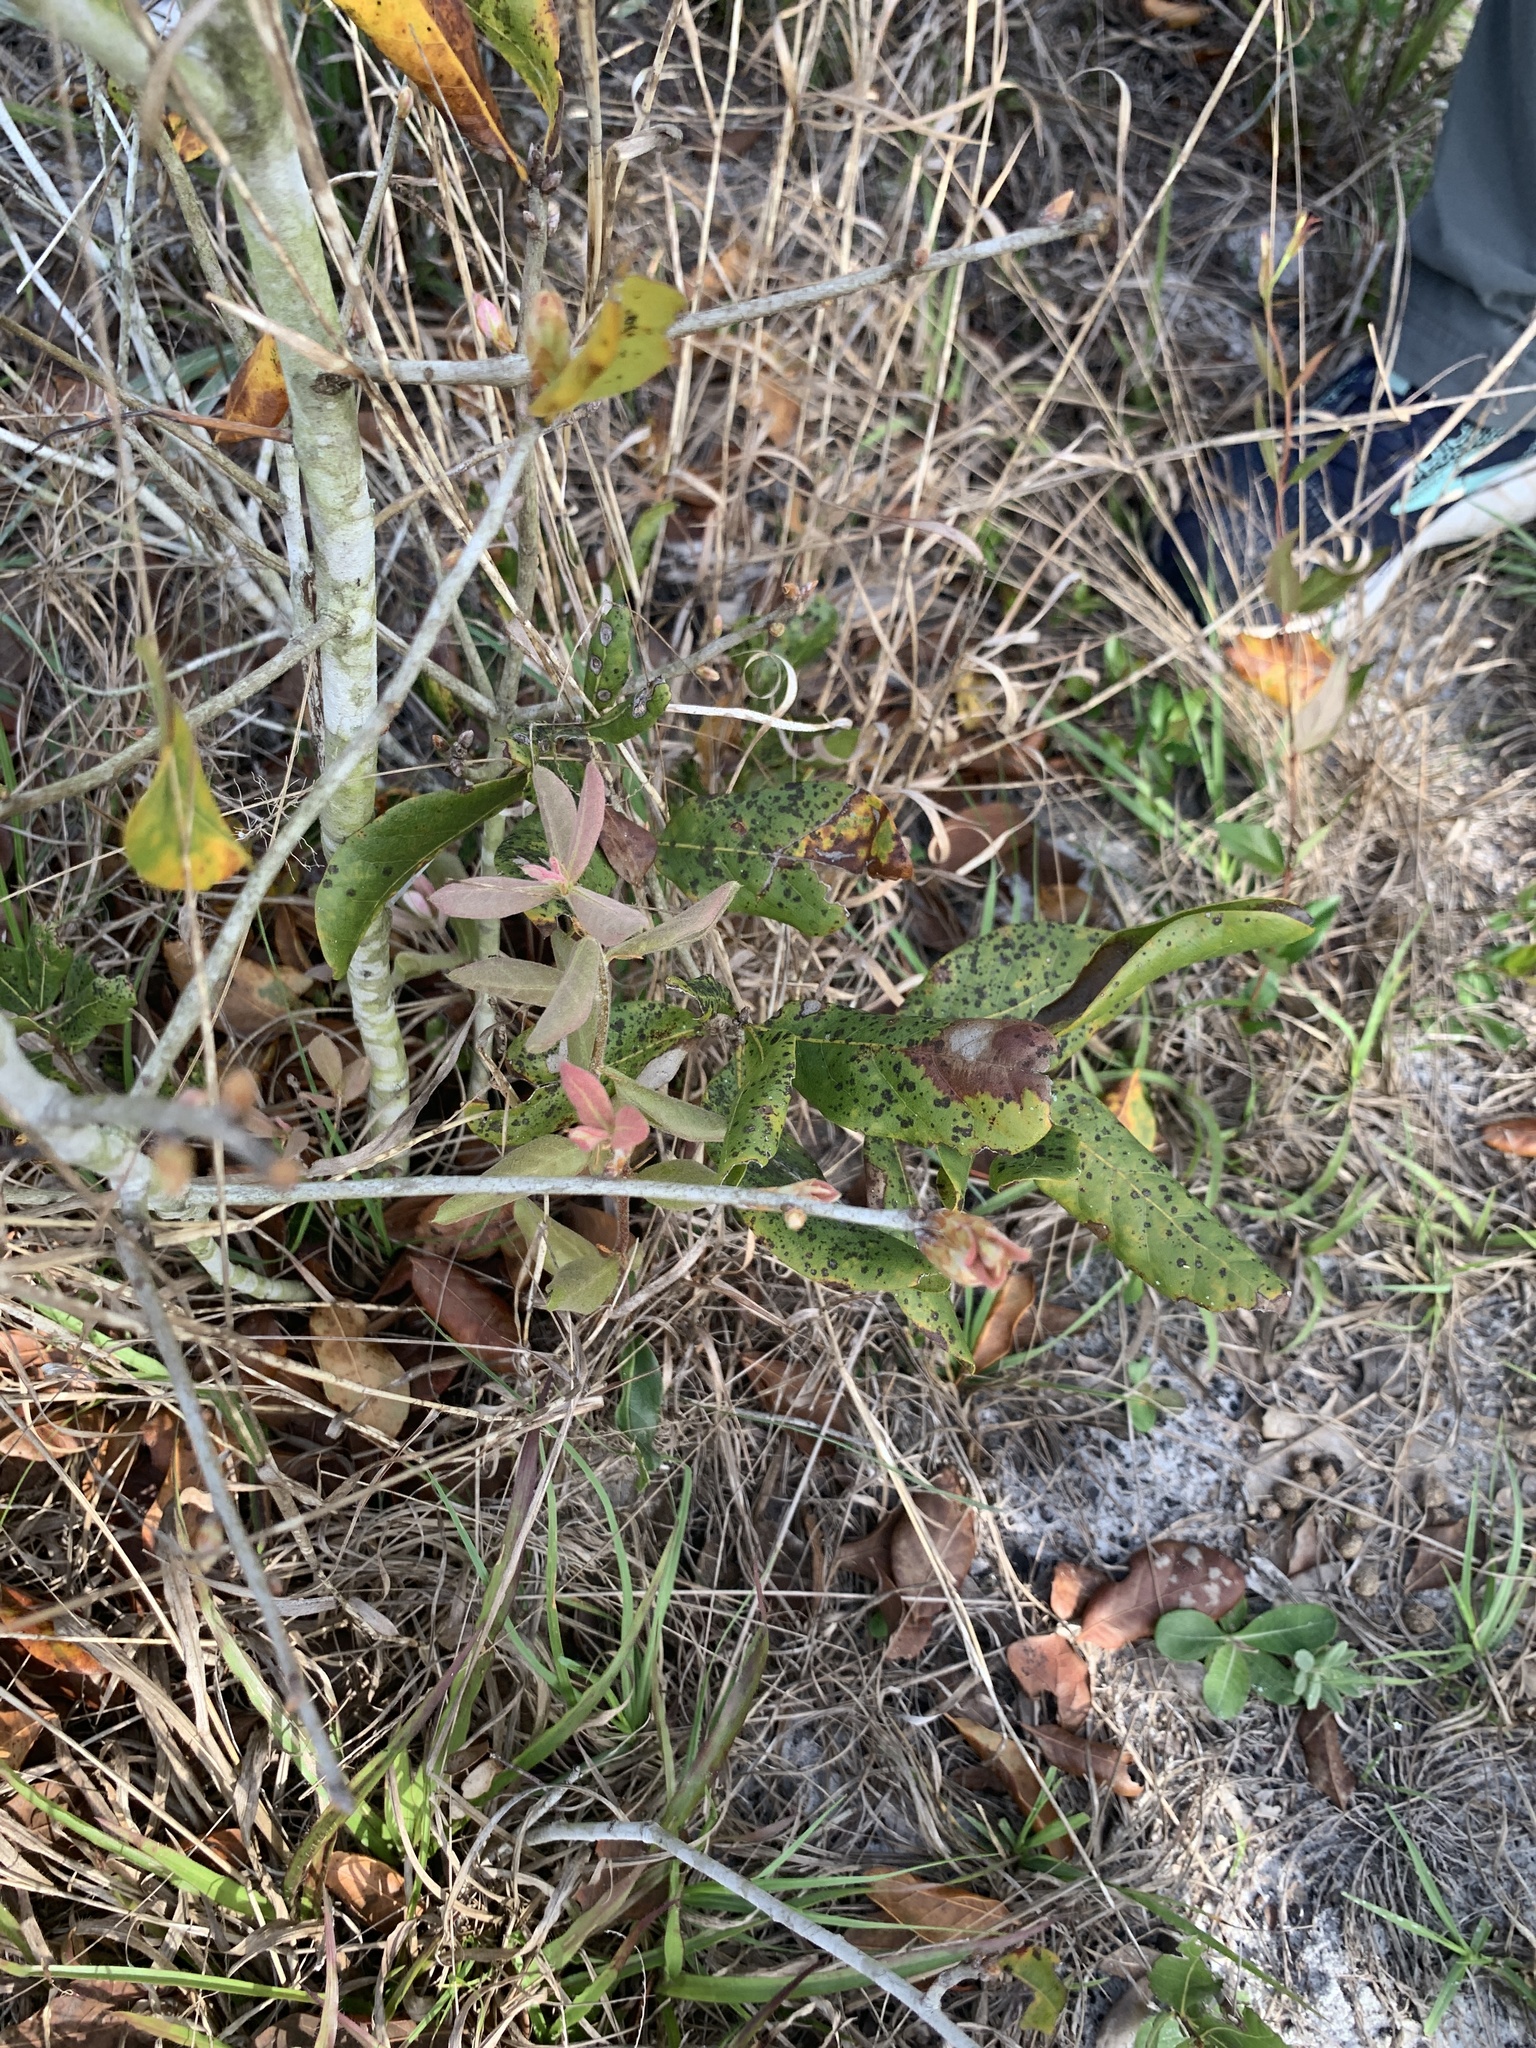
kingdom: Plantae
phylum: Tracheophyta
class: Magnoliopsida
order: Fagales
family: Fagaceae
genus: Quercus
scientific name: Quercus inopina
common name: Sandhill oak
